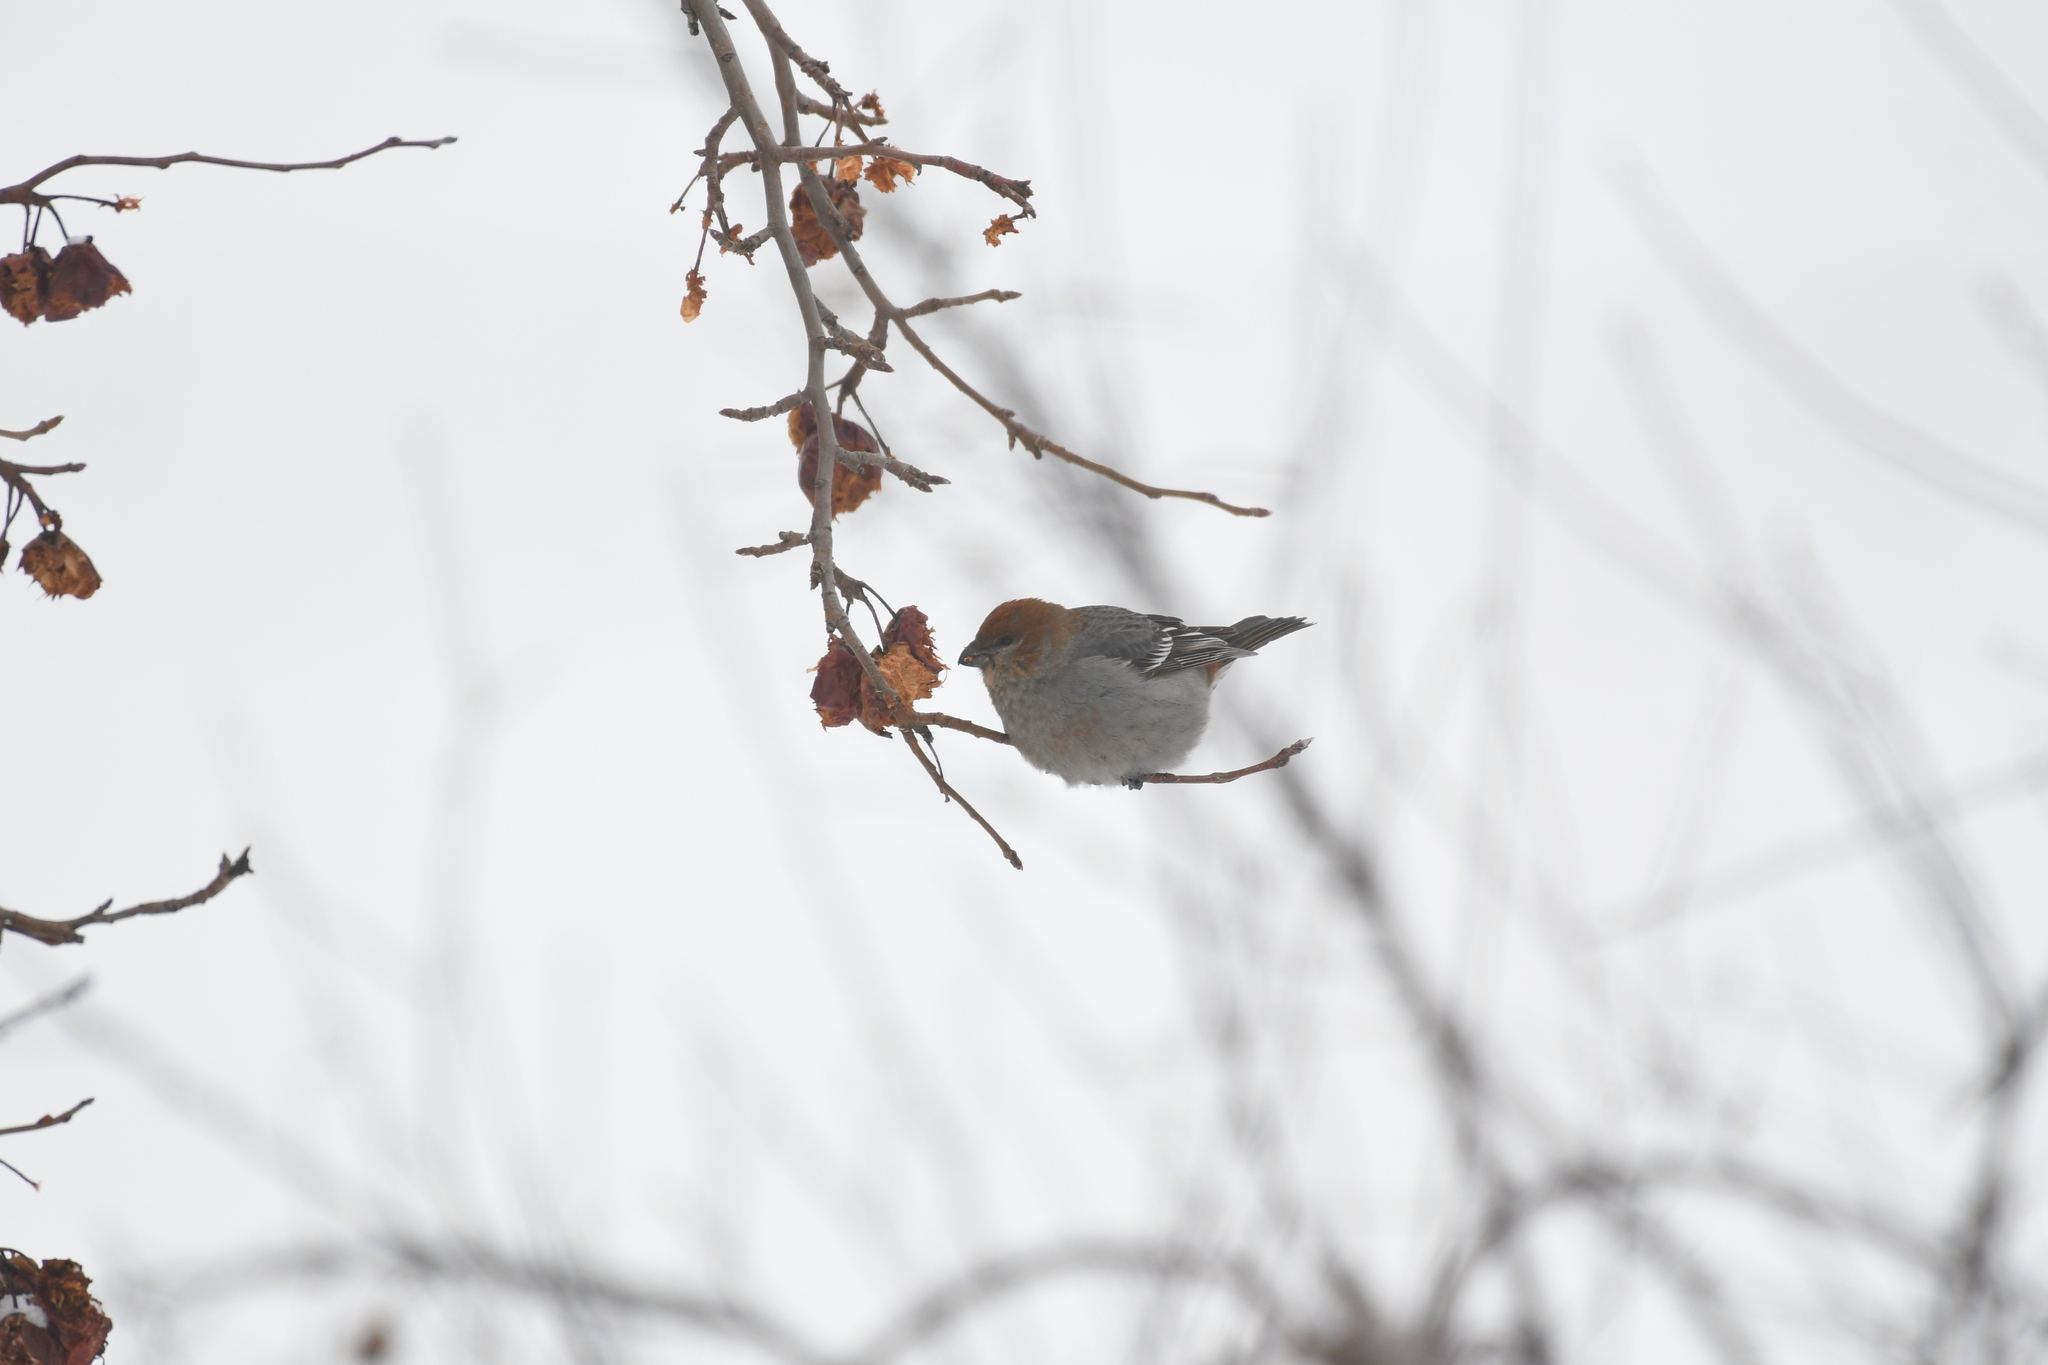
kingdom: Animalia
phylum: Chordata
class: Aves
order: Passeriformes
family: Fringillidae
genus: Pinicola
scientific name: Pinicola enucleator
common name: Pine grosbeak
